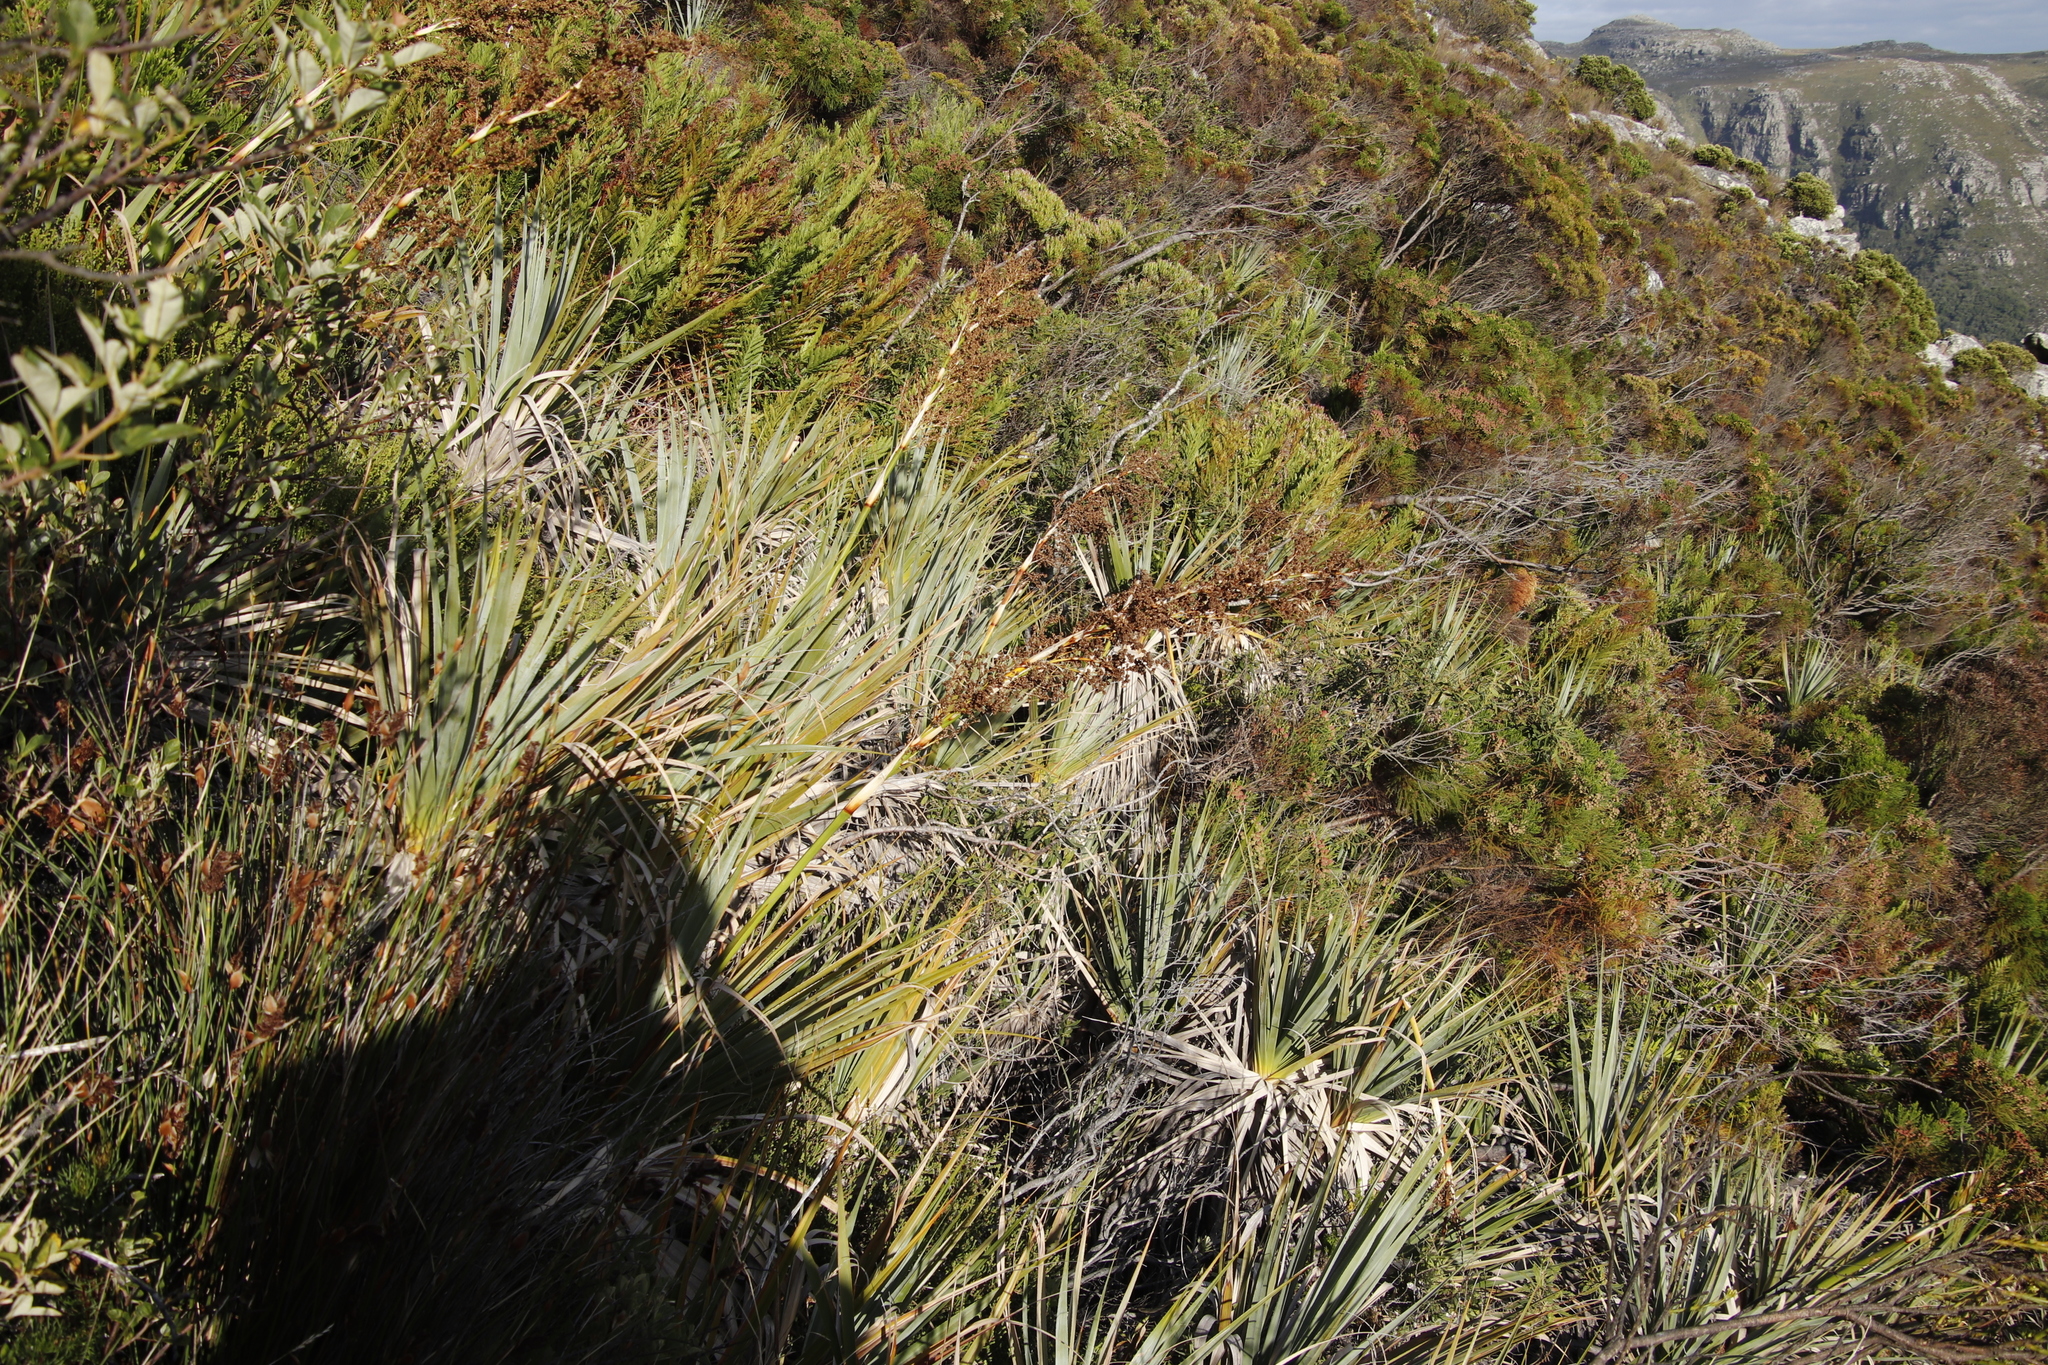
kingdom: Plantae
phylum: Tracheophyta
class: Liliopsida
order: Poales
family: Thurniaceae
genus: Prionium
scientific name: Prionium serratum
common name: Palmiet
